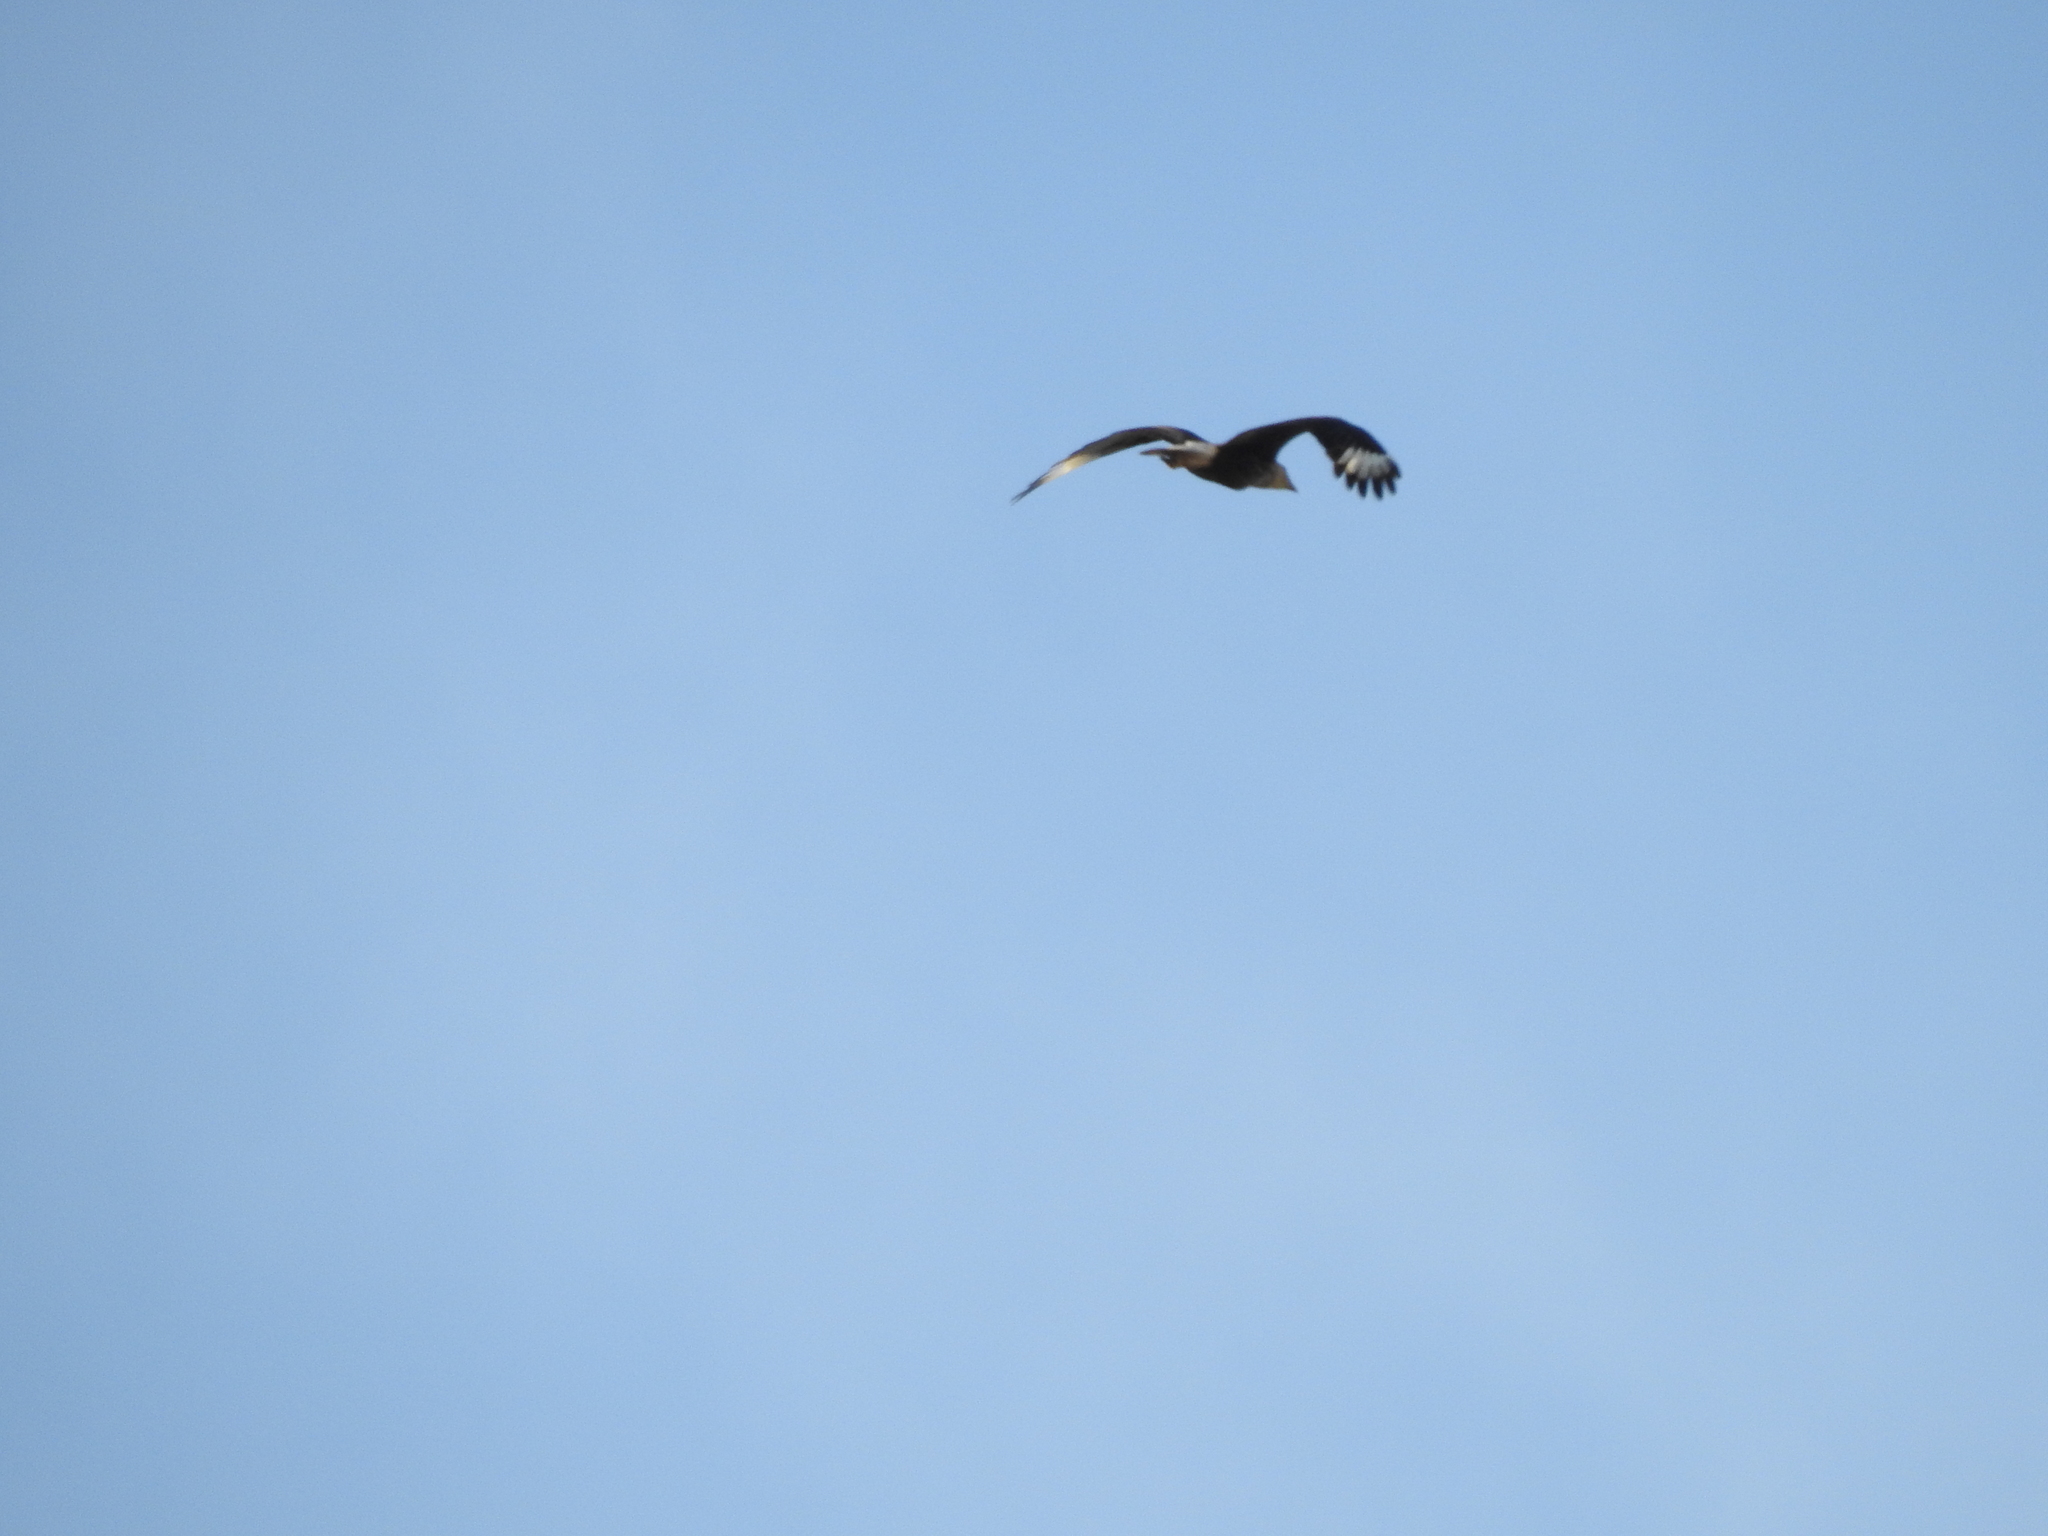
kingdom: Animalia
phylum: Chordata
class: Aves
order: Falconiformes
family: Falconidae
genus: Caracara
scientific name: Caracara plancus
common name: Southern caracara
